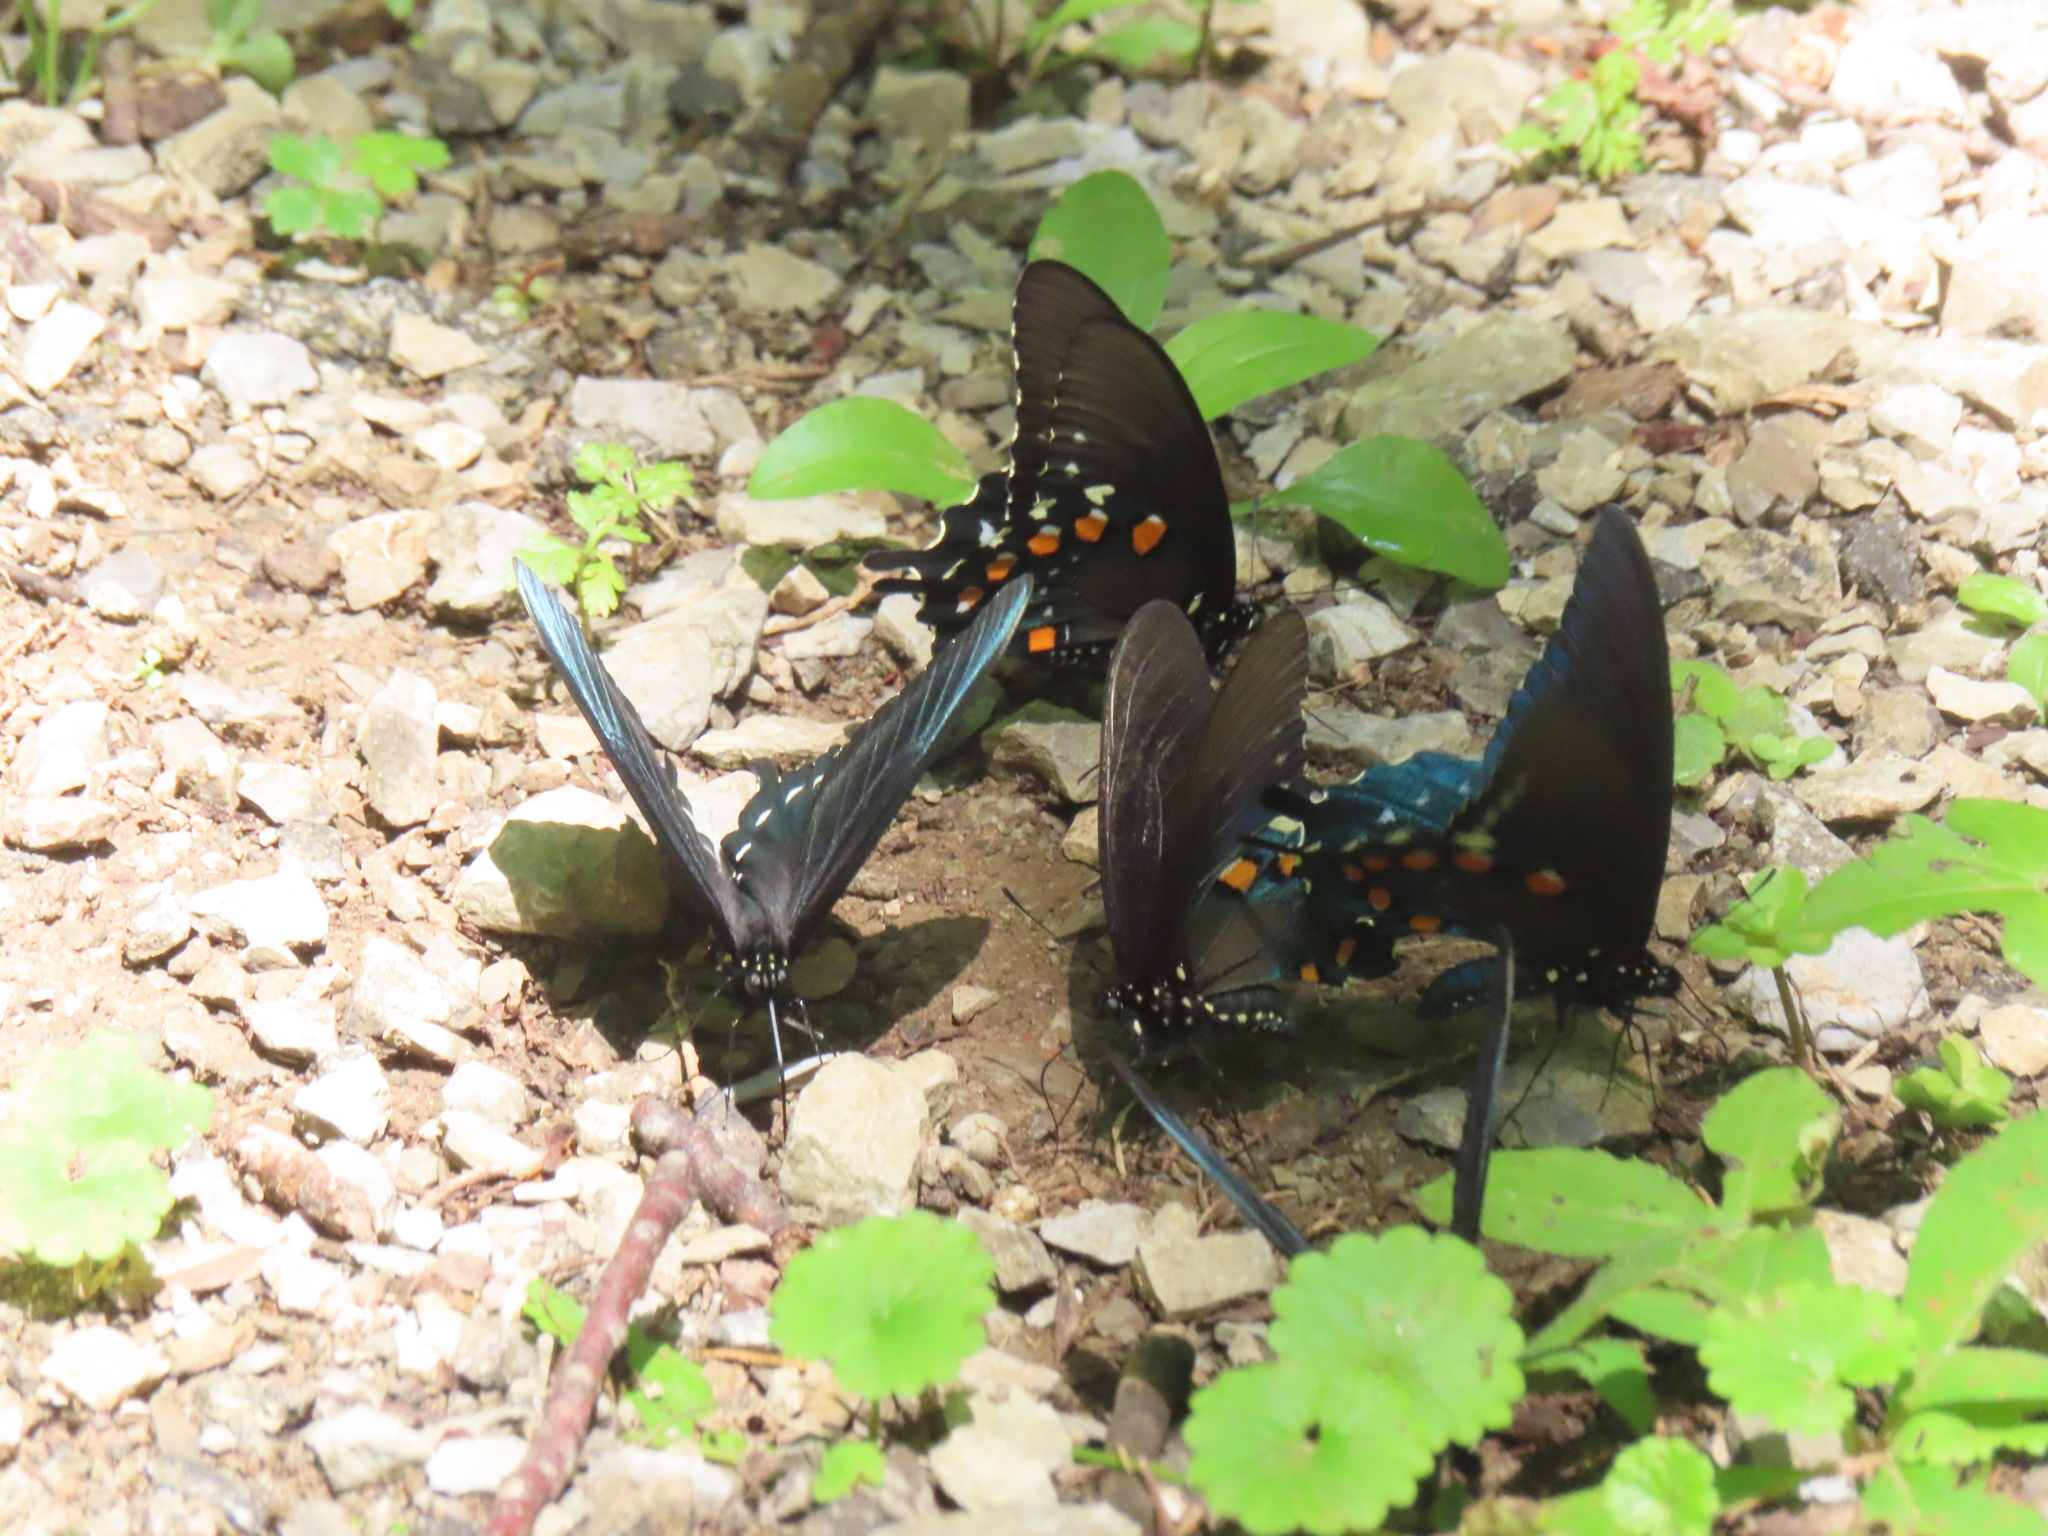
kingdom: Animalia
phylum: Arthropoda
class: Insecta
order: Lepidoptera
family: Papilionidae
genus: Battus
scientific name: Battus philenor
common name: Pipevine swallowtail
